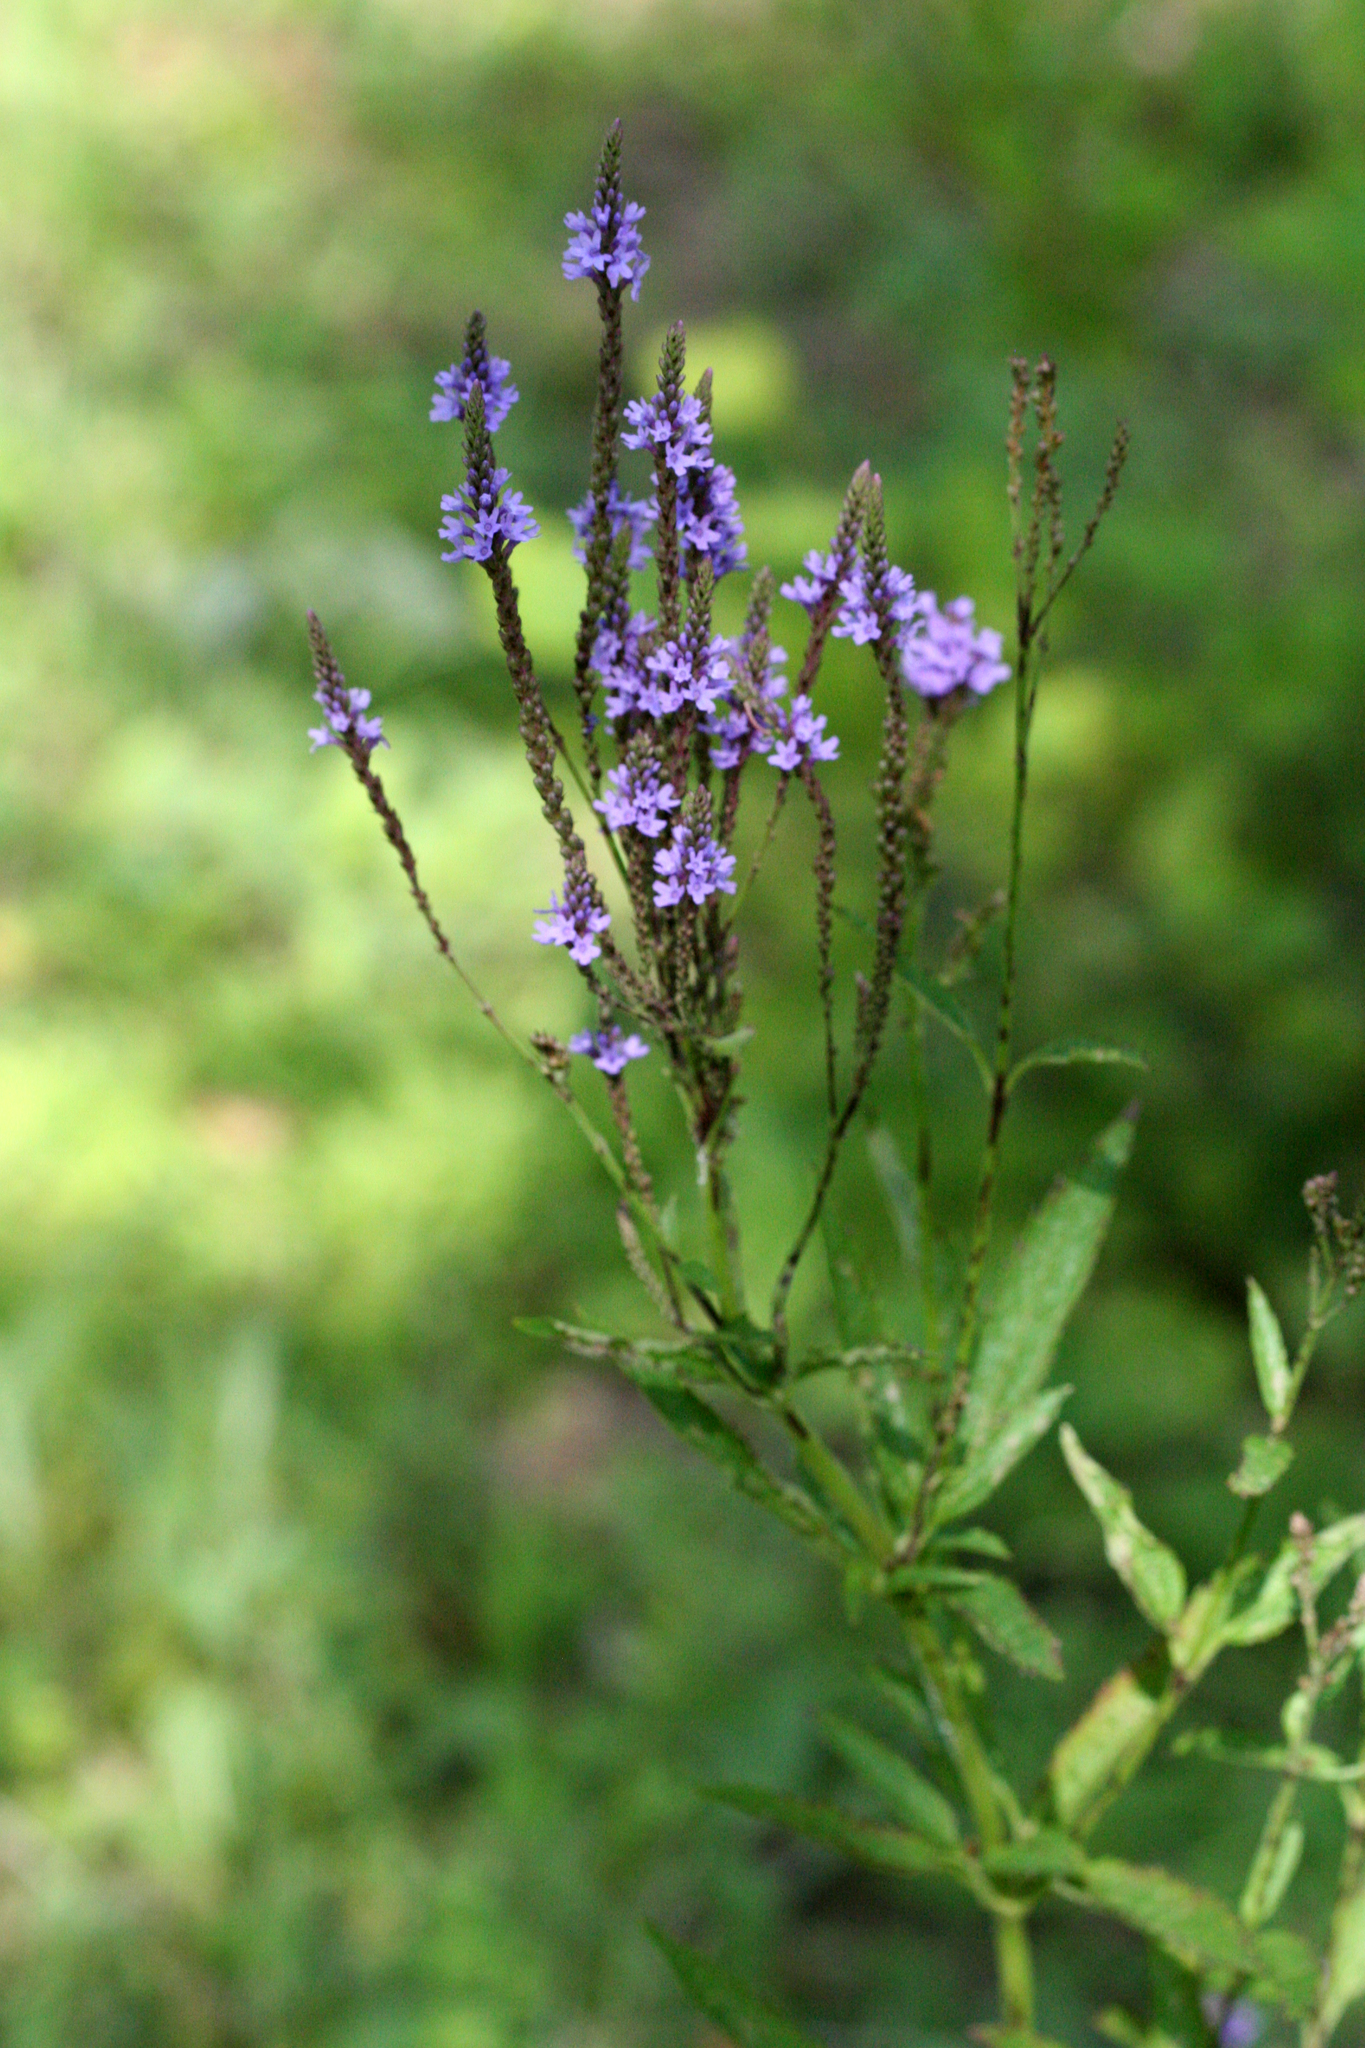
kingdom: Plantae
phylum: Tracheophyta
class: Magnoliopsida
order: Lamiales
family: Verbenaceae
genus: Verbena
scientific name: Verbena hastata
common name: American blue vervain
